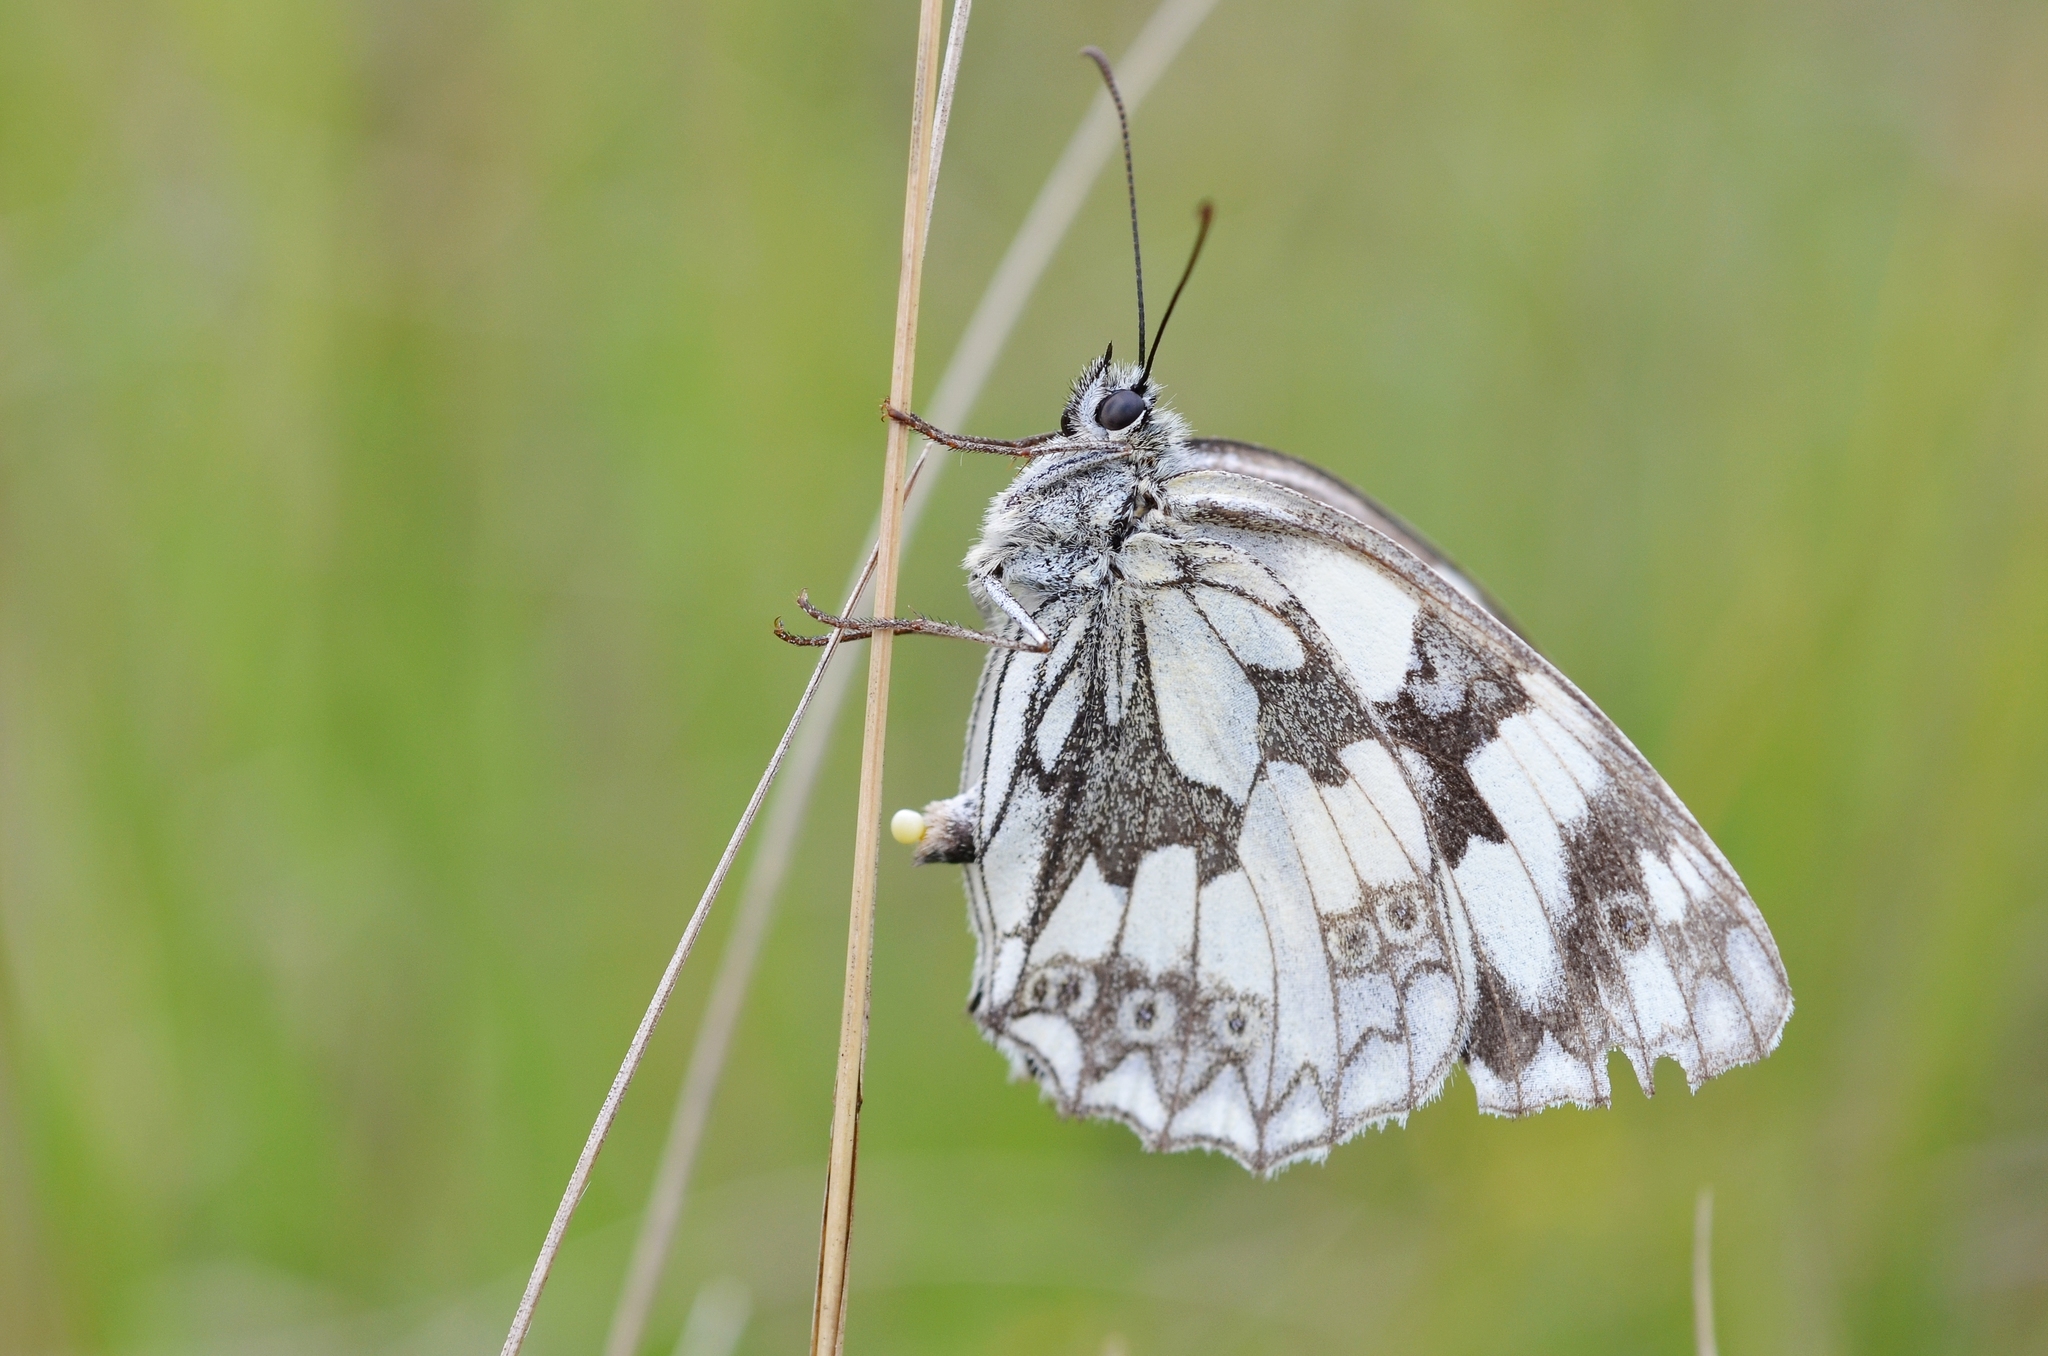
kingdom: Animalia
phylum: Arthropoda
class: Insecta
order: Lepidoptera
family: Nymphalidae
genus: Melanargia
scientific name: Melanargia galathea
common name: Marbled white
